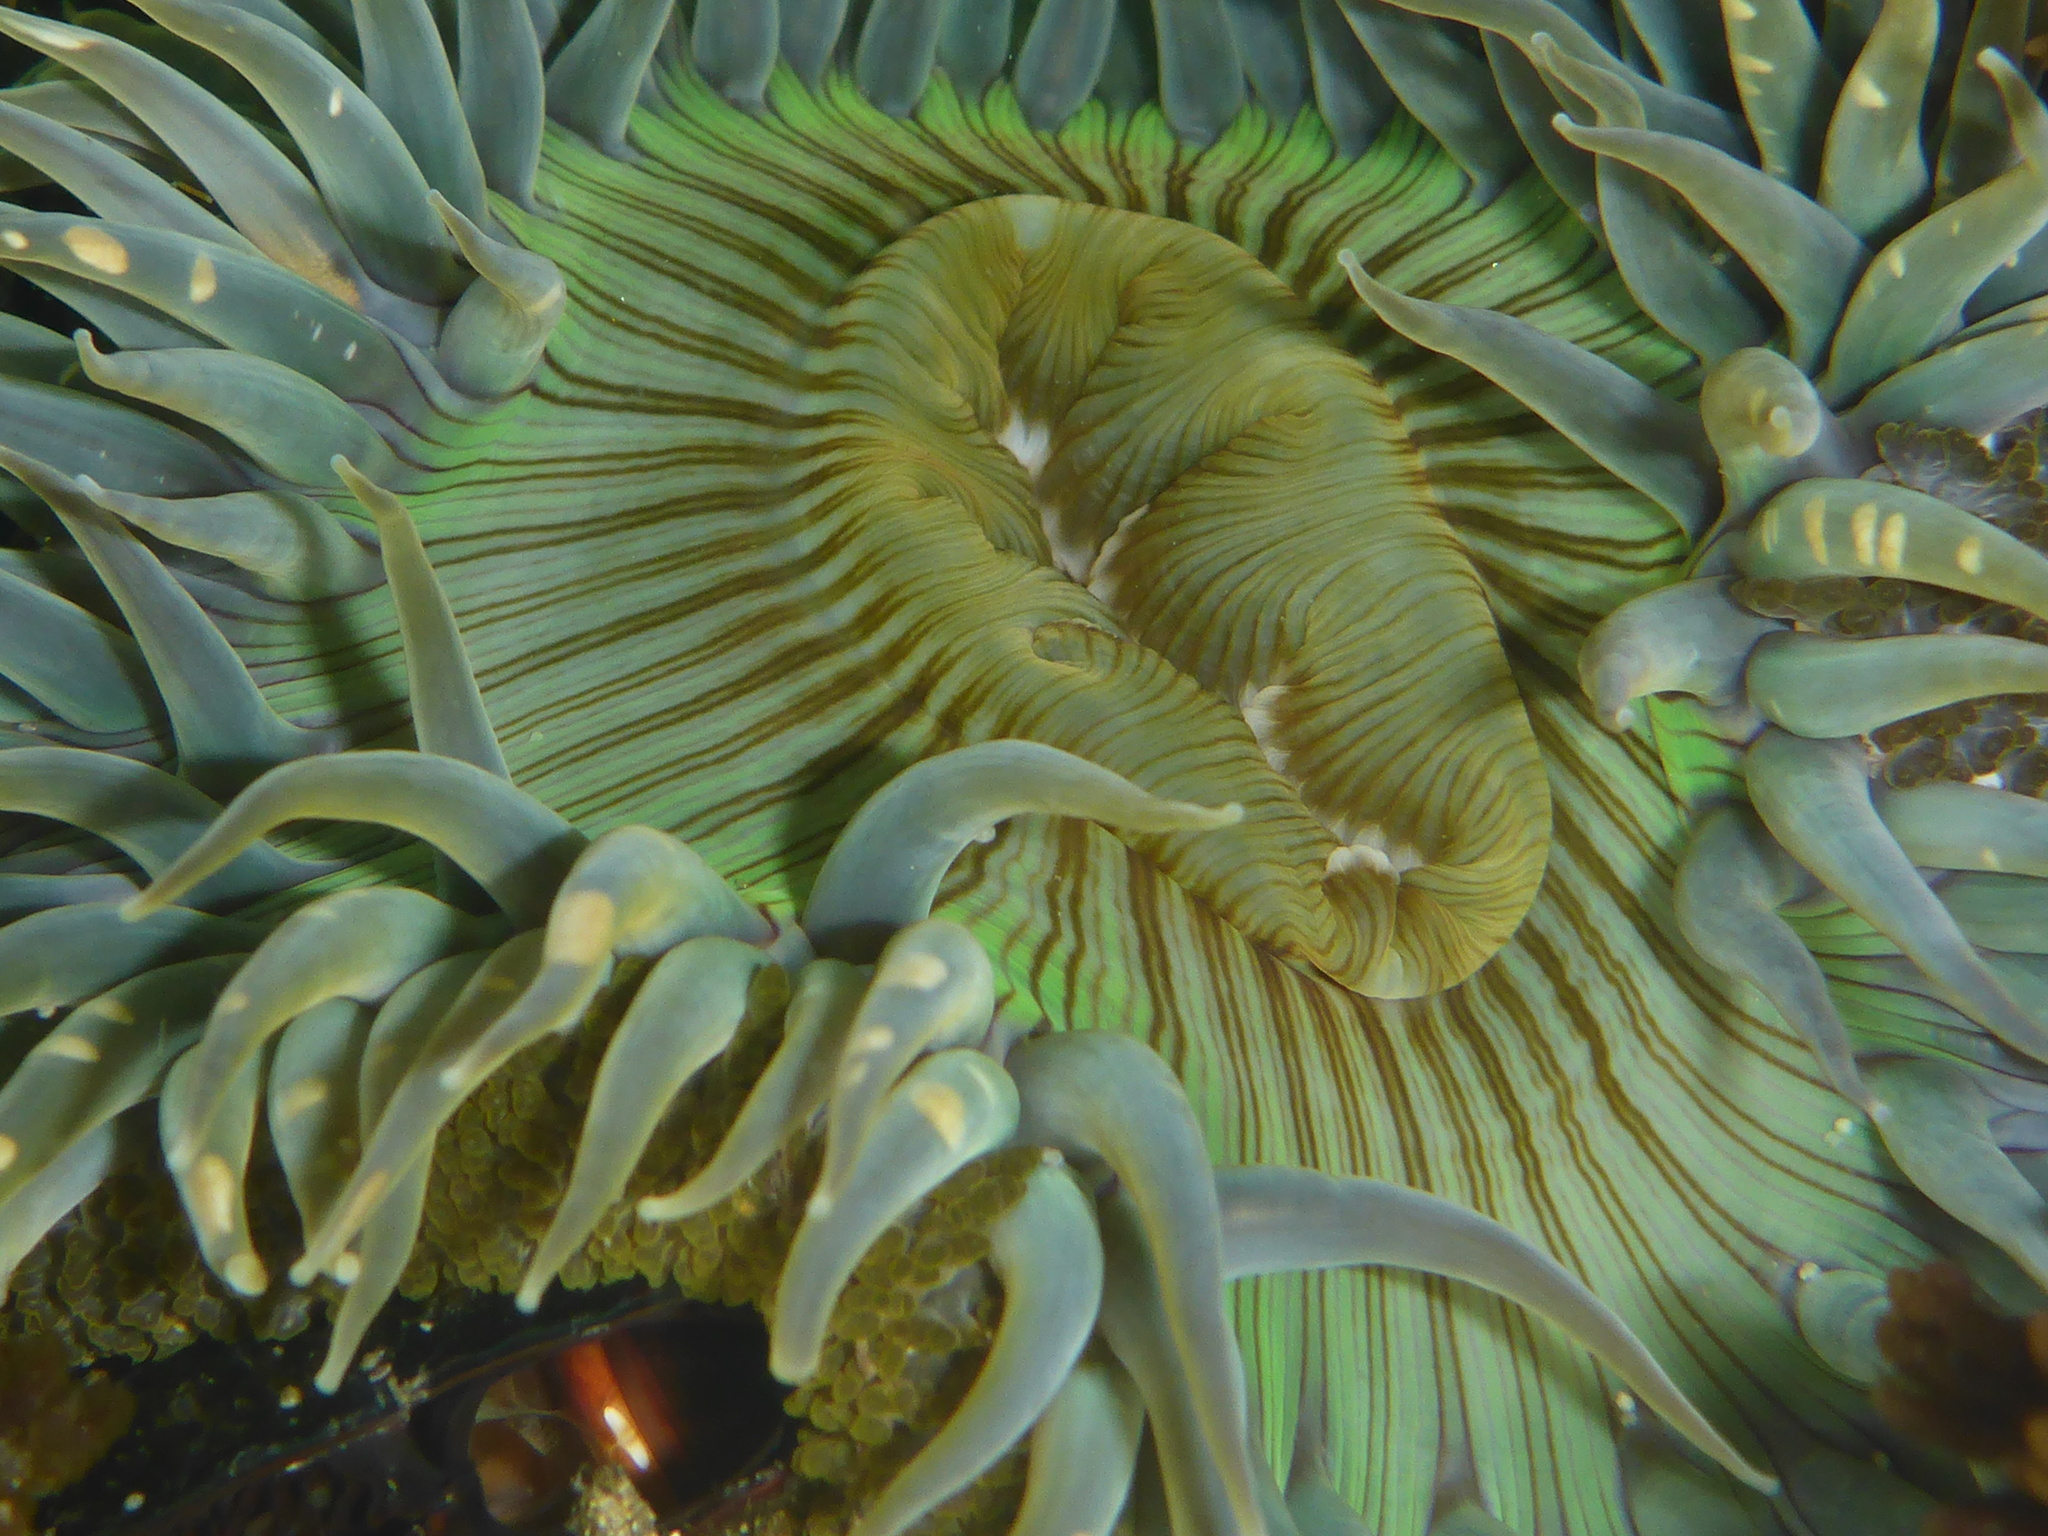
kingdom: Animalia
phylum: Cnidaria
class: Anthozoa
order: Actiniaria
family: Actiniidae
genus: Anthopleura
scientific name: Anthopleura sola
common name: Sun anemone
